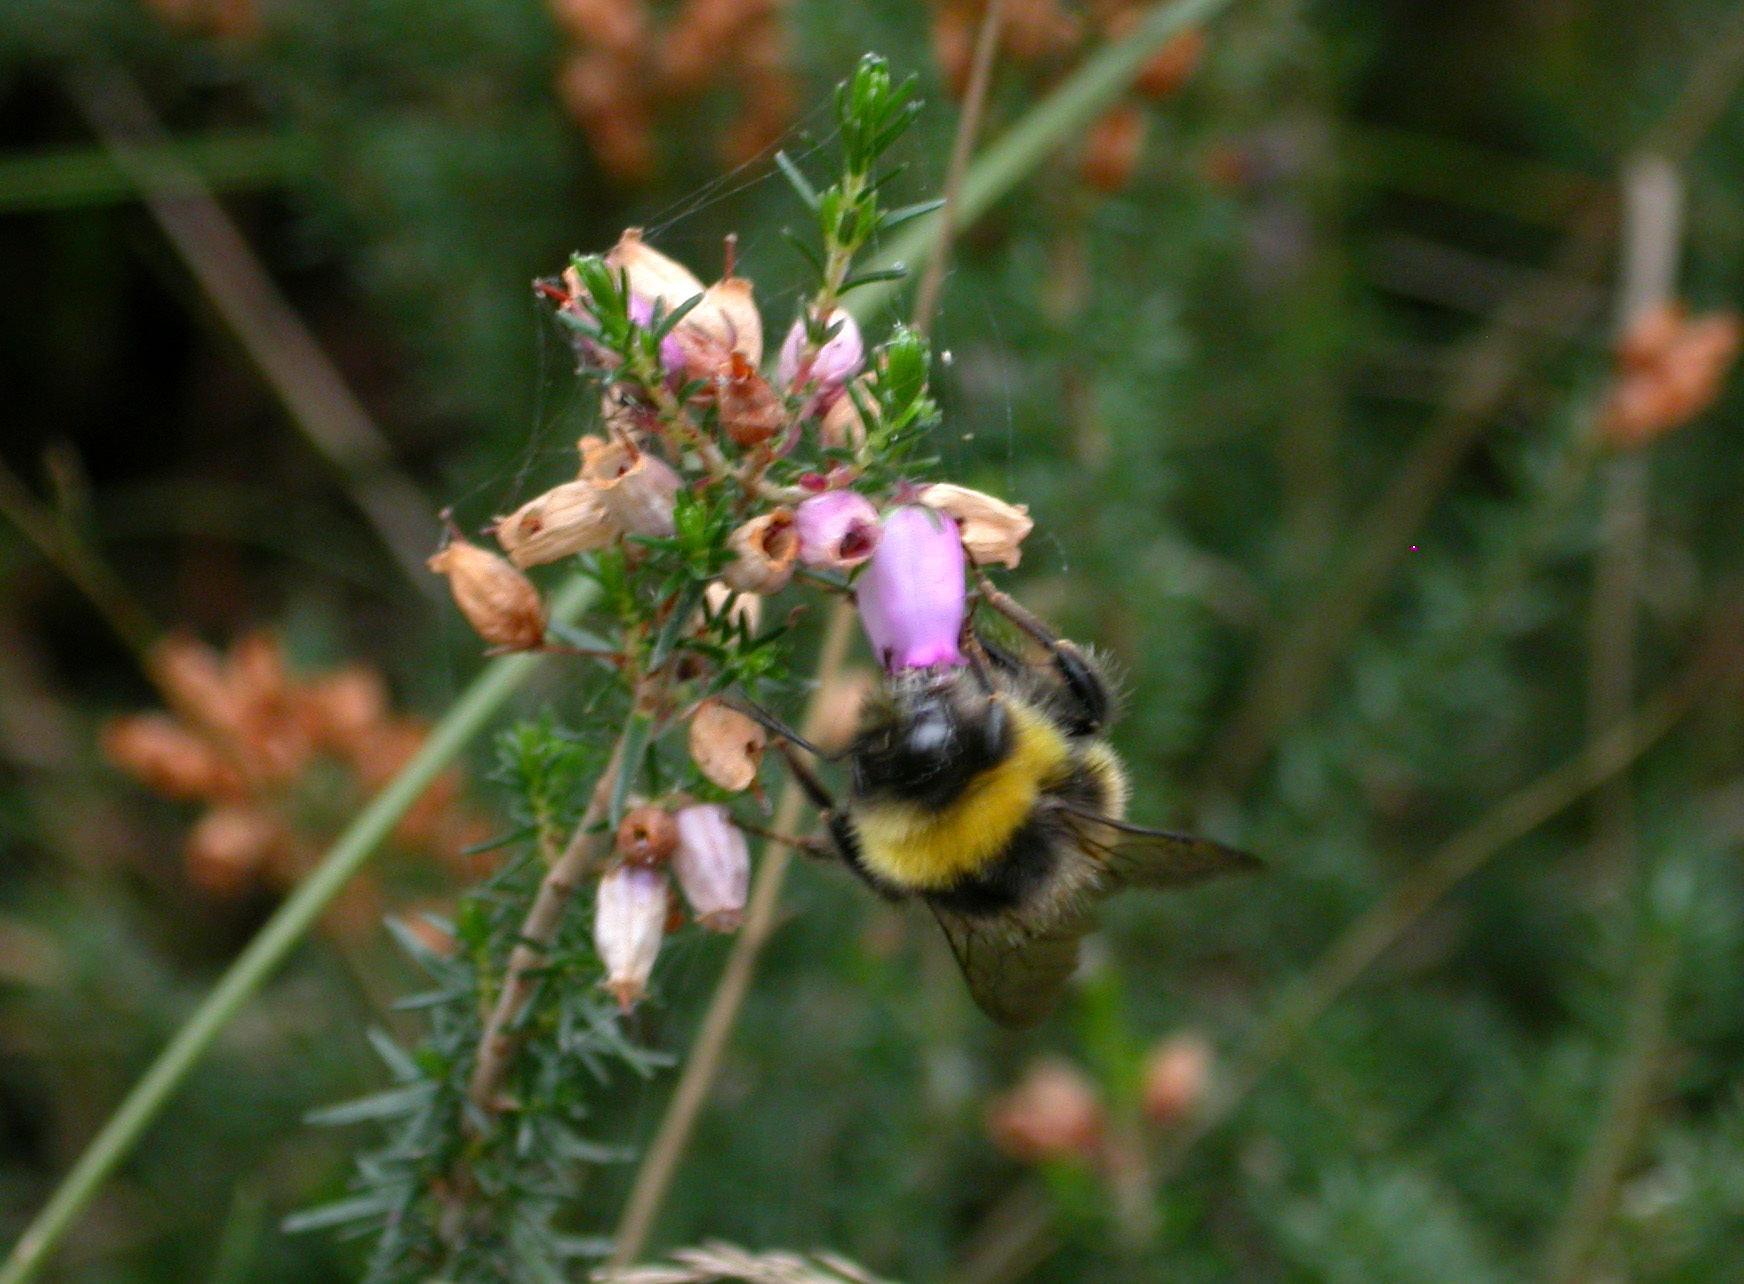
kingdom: Animalia
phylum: Arthropoda
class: Insecta
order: Hymenoptera
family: Apidae
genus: Bombus
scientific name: Bombus lucorum
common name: White-tailed bumblebee
